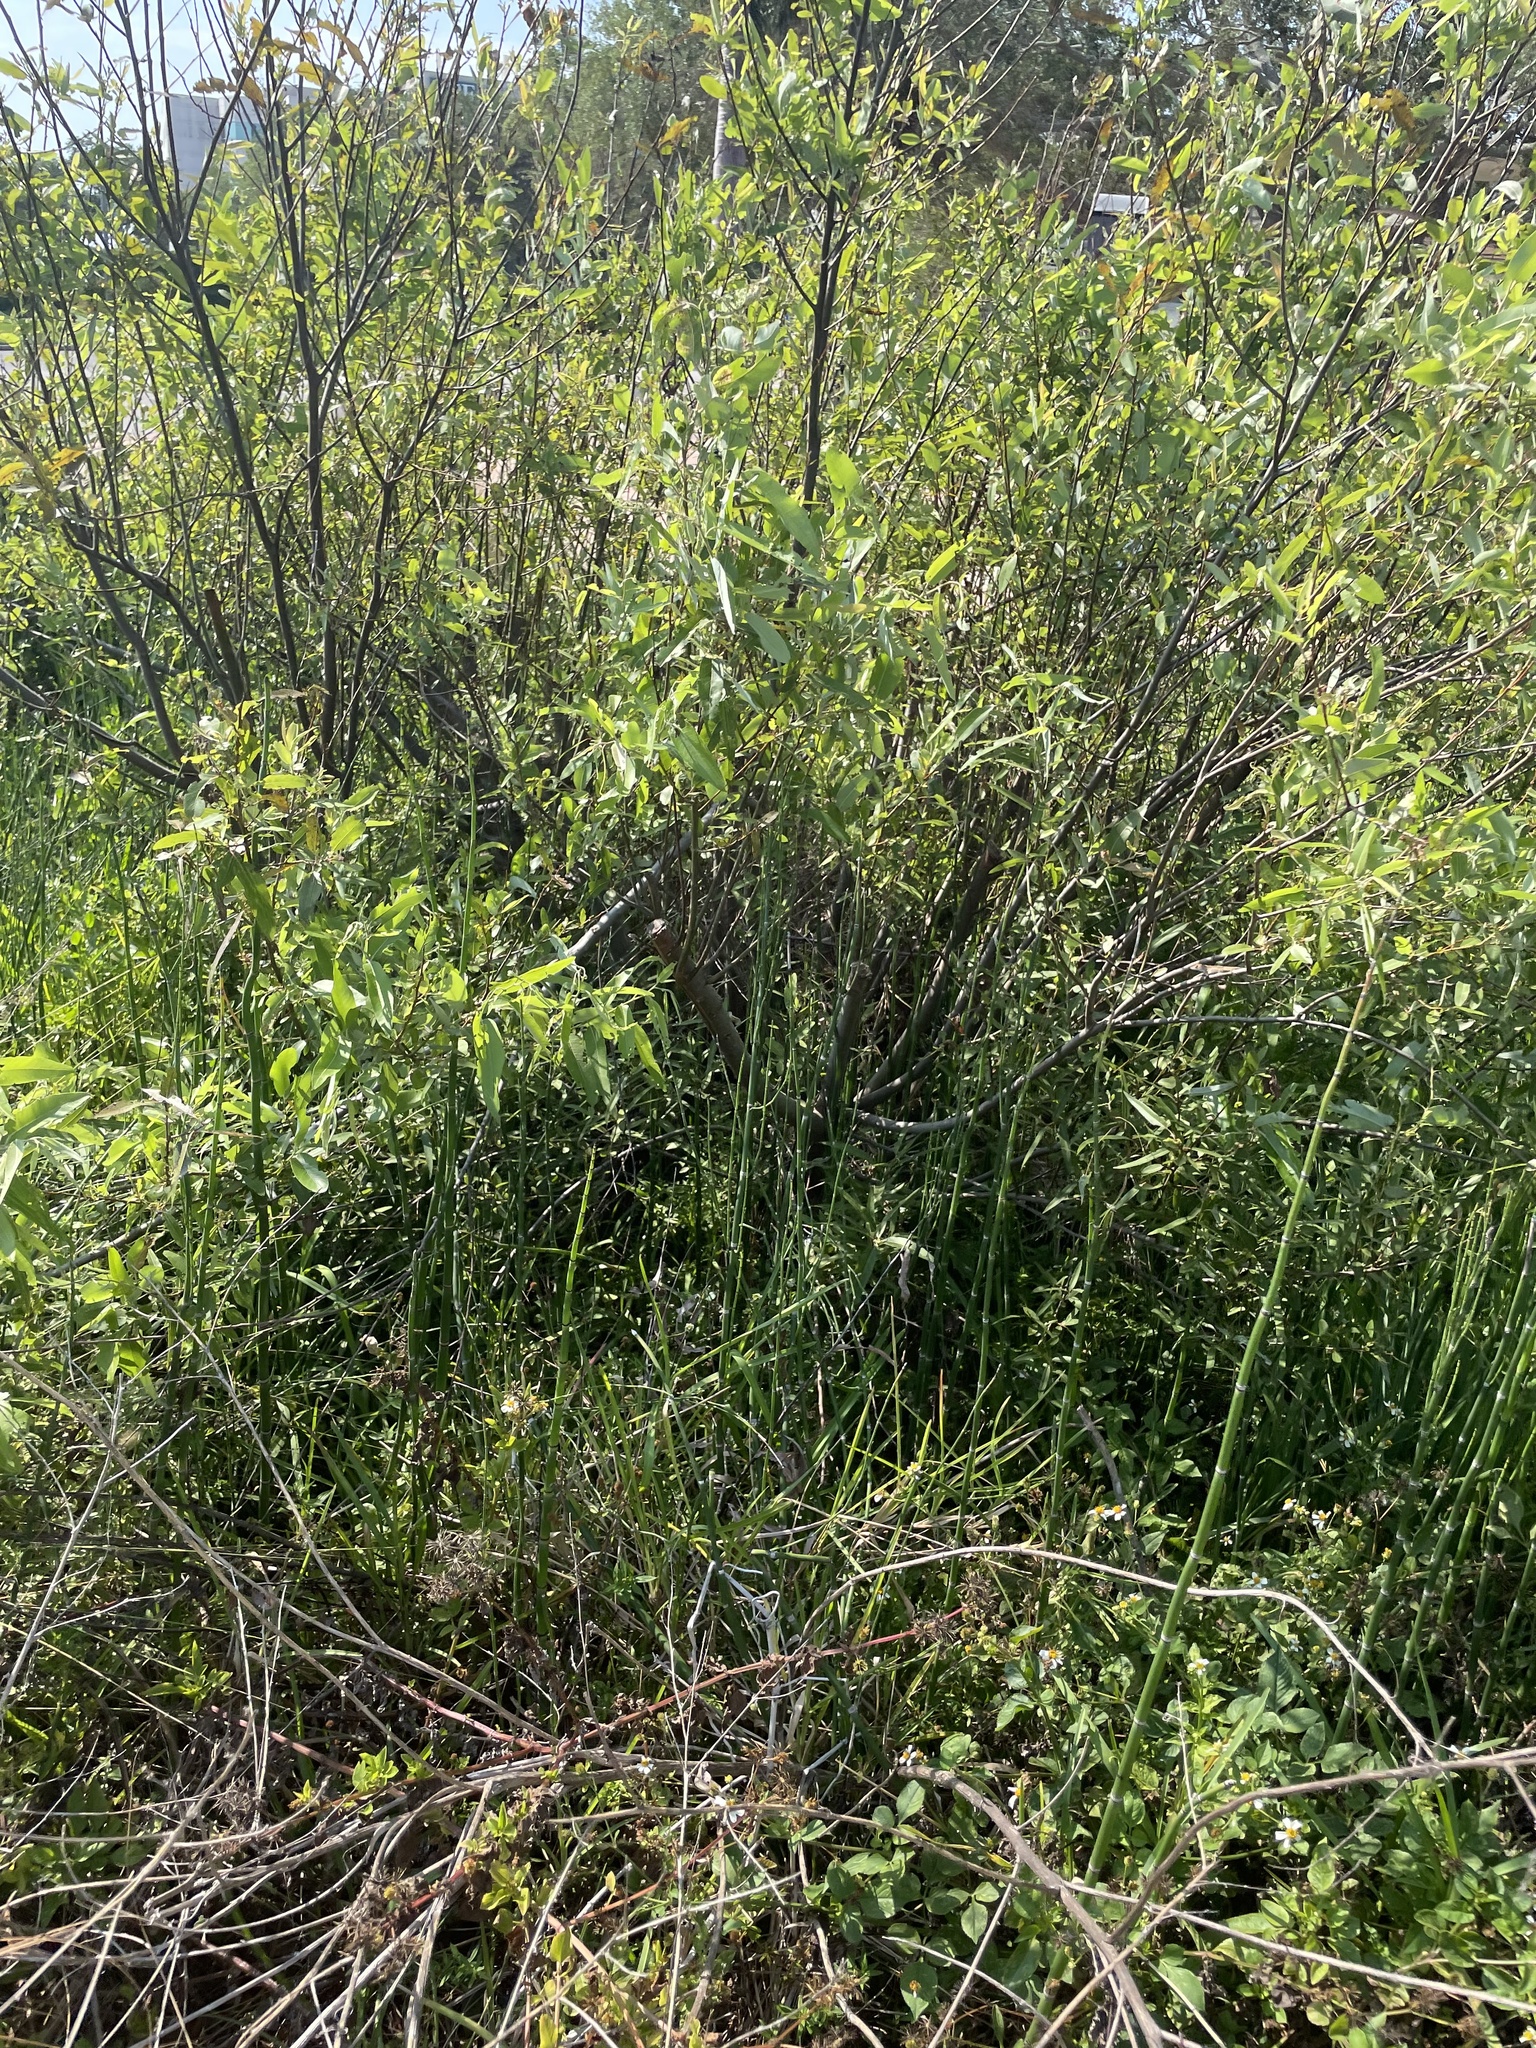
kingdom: Plantae
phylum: Tracheophyta
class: Magnoliopsida
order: Malpighiales
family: Salicaceae
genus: Salix
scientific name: Salix caroliniana
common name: Carolina willow
